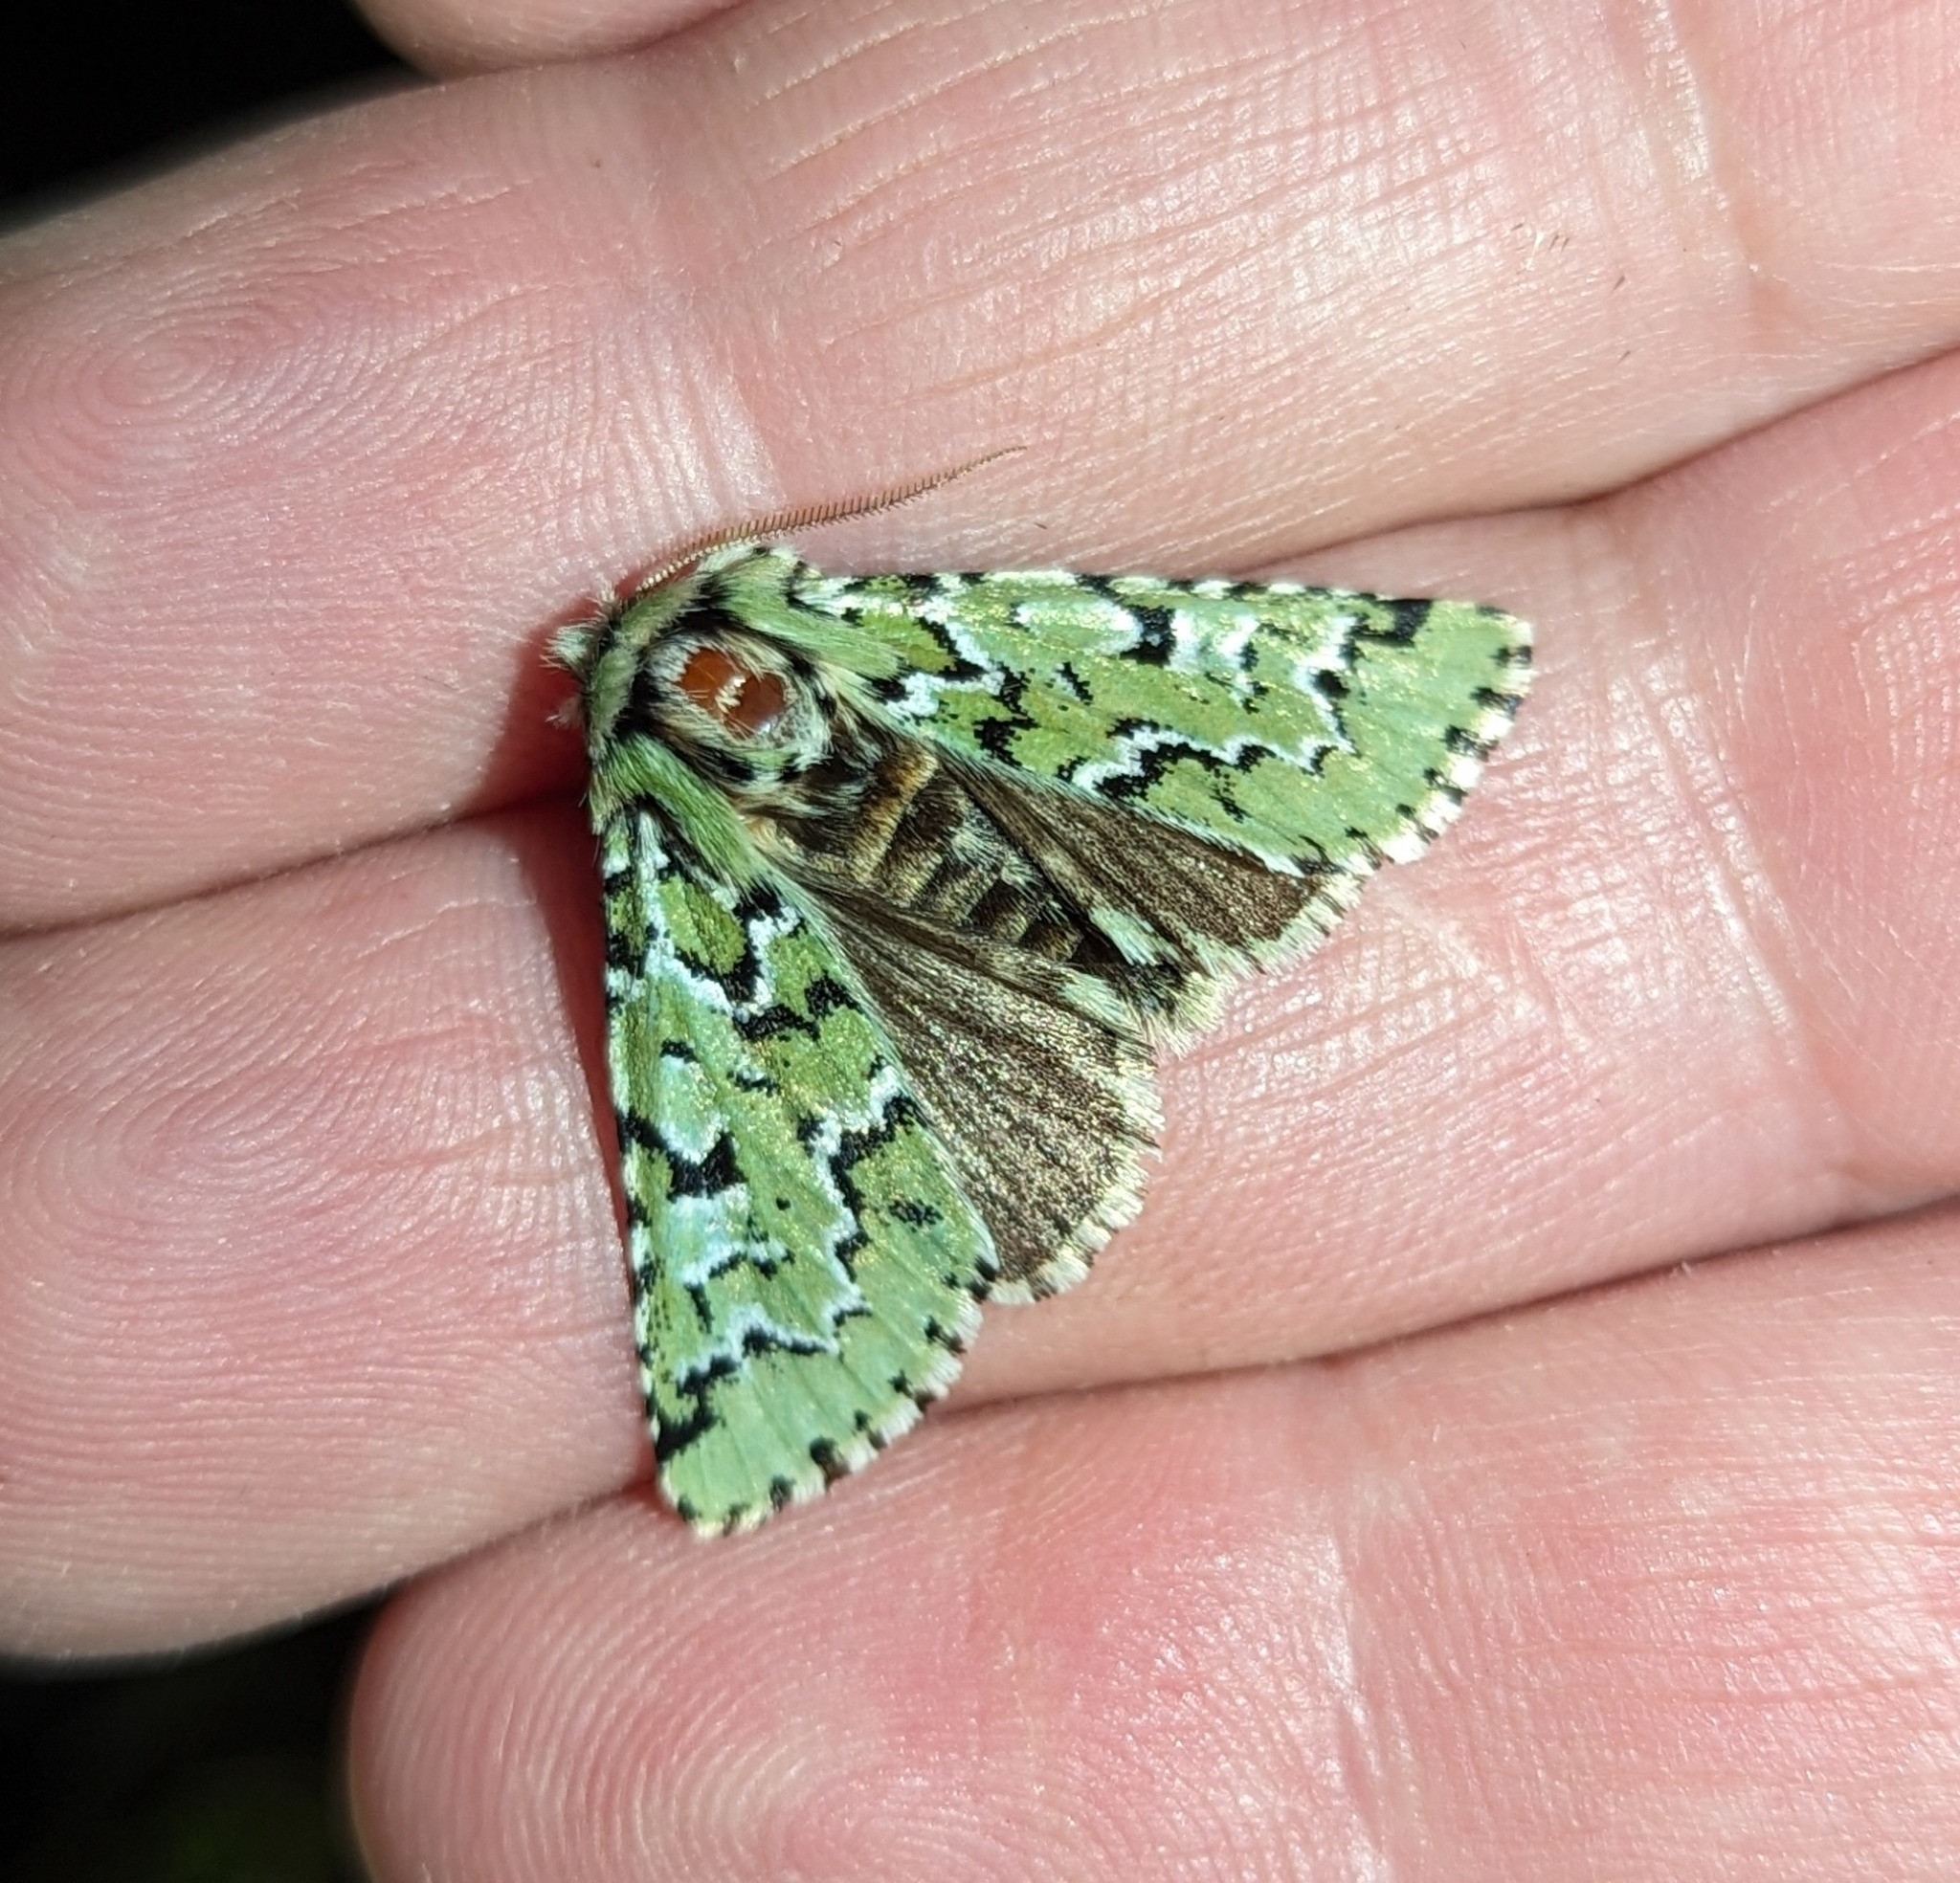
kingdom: Animalia
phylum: Arthropoda
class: Insecta
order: Lepidoptera
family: Noctuidae
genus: Feralia
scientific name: Feralia deceptiva
